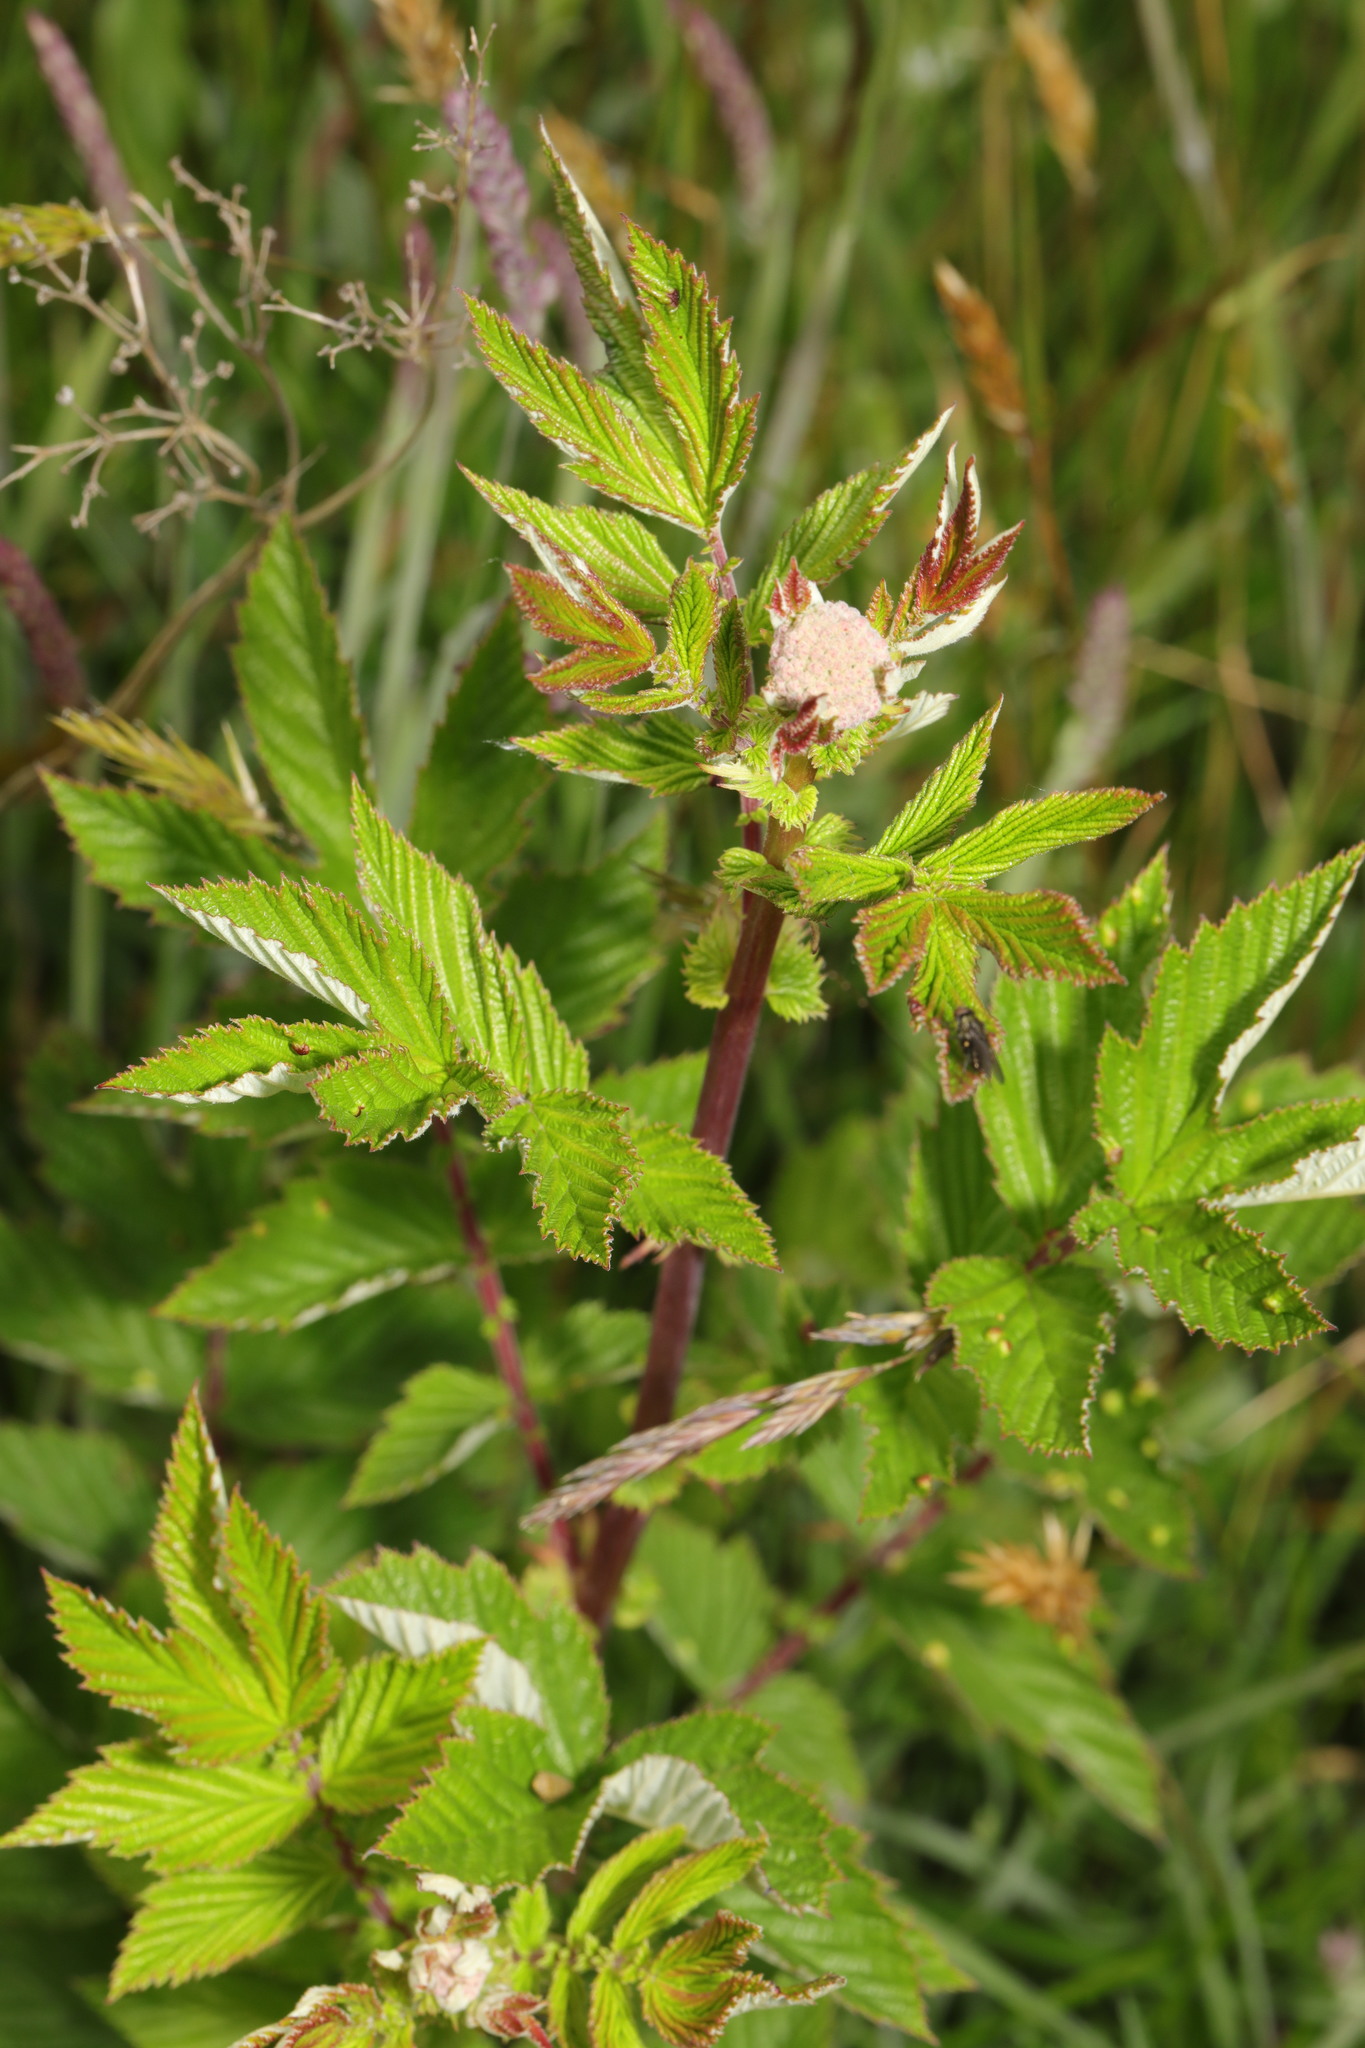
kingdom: Plantae
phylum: Tracheophyta
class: Magnoliopsida
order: Rosales
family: Rosaceae
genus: Filipendula
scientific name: Filipendula ulmaria
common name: Meadowsweet
